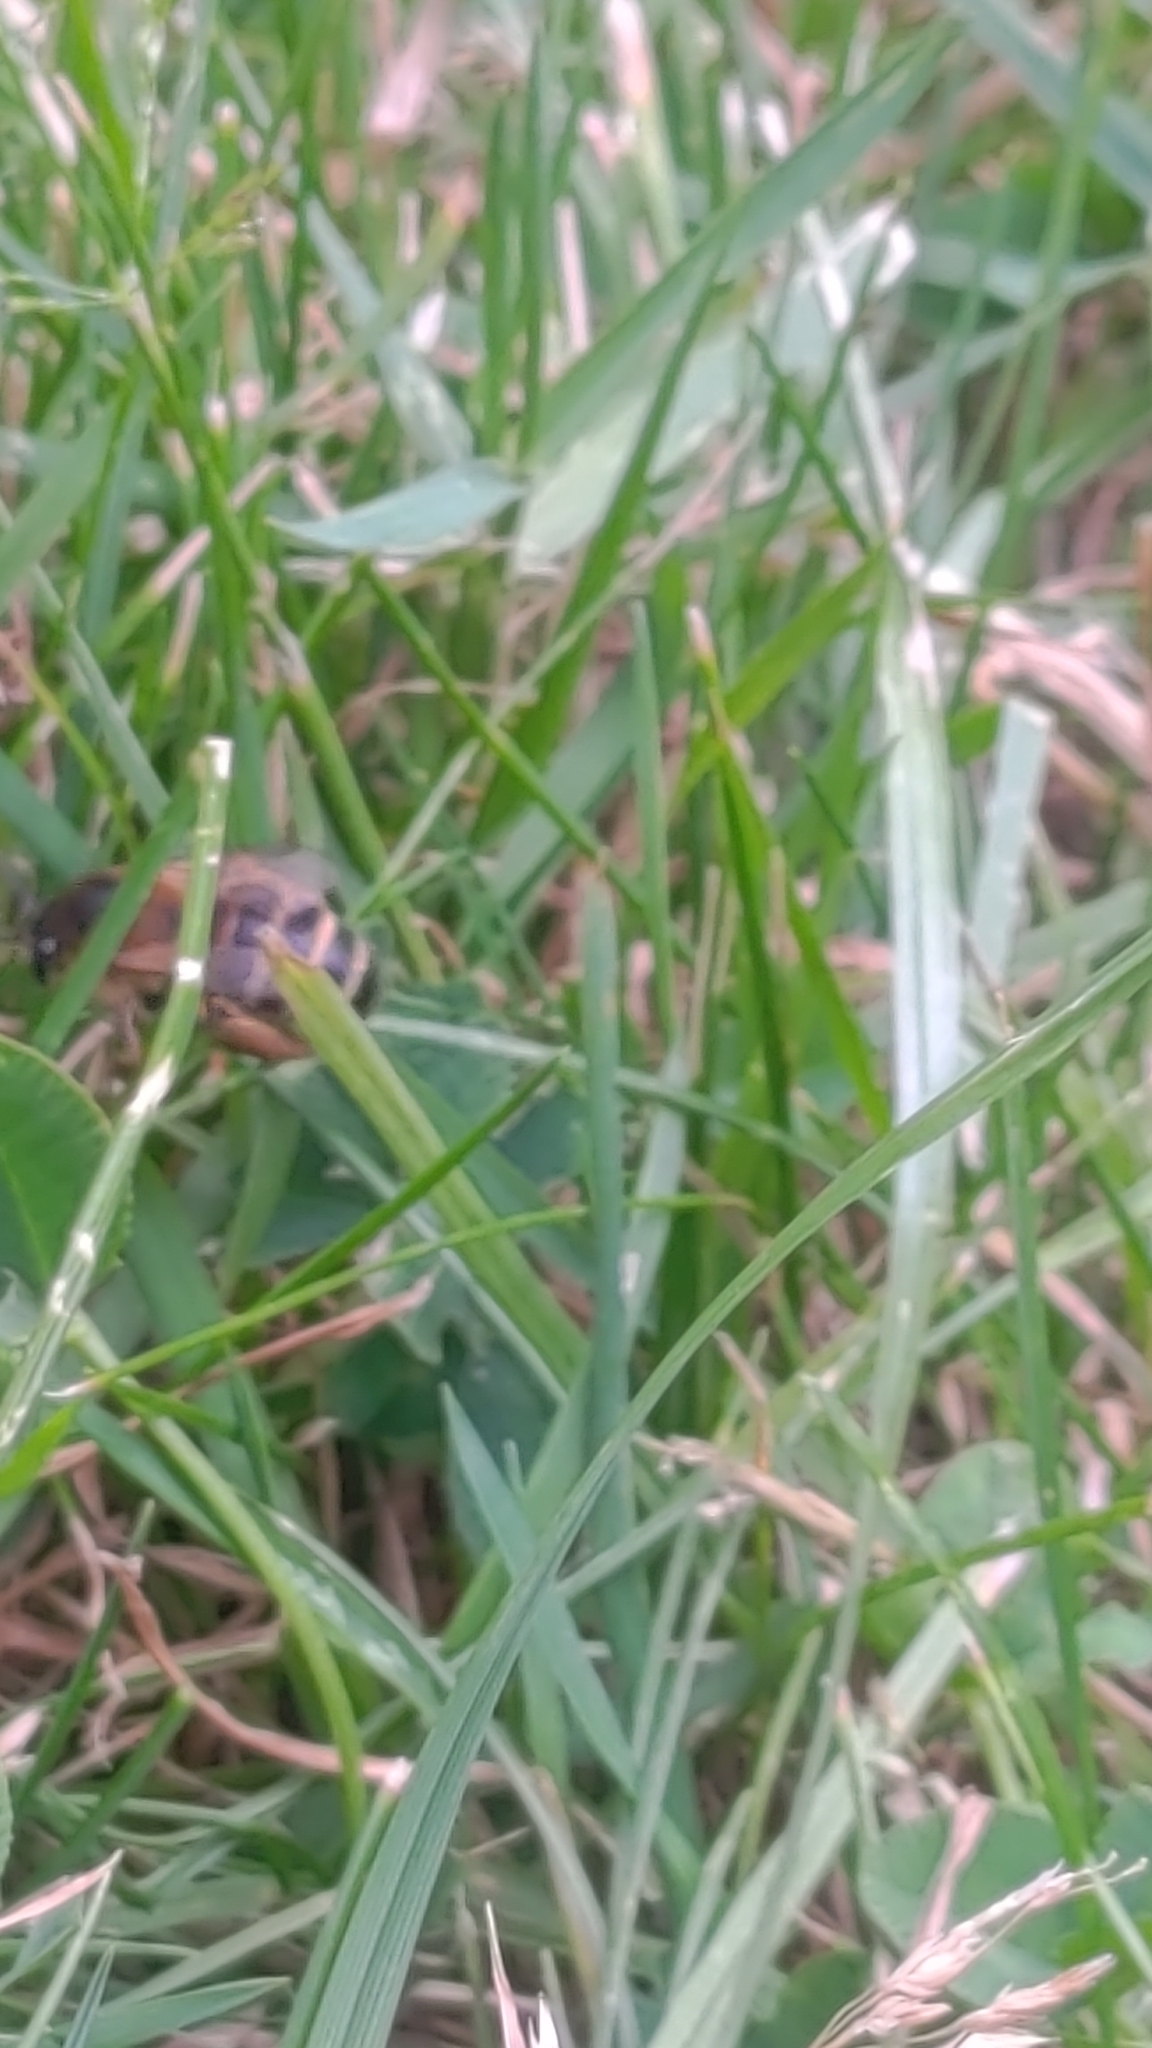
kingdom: Animalia
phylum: Arthropoda
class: Insecta
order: Hymenoptera
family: Apidae
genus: Apis
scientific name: Apis mellifera
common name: Honey bee
